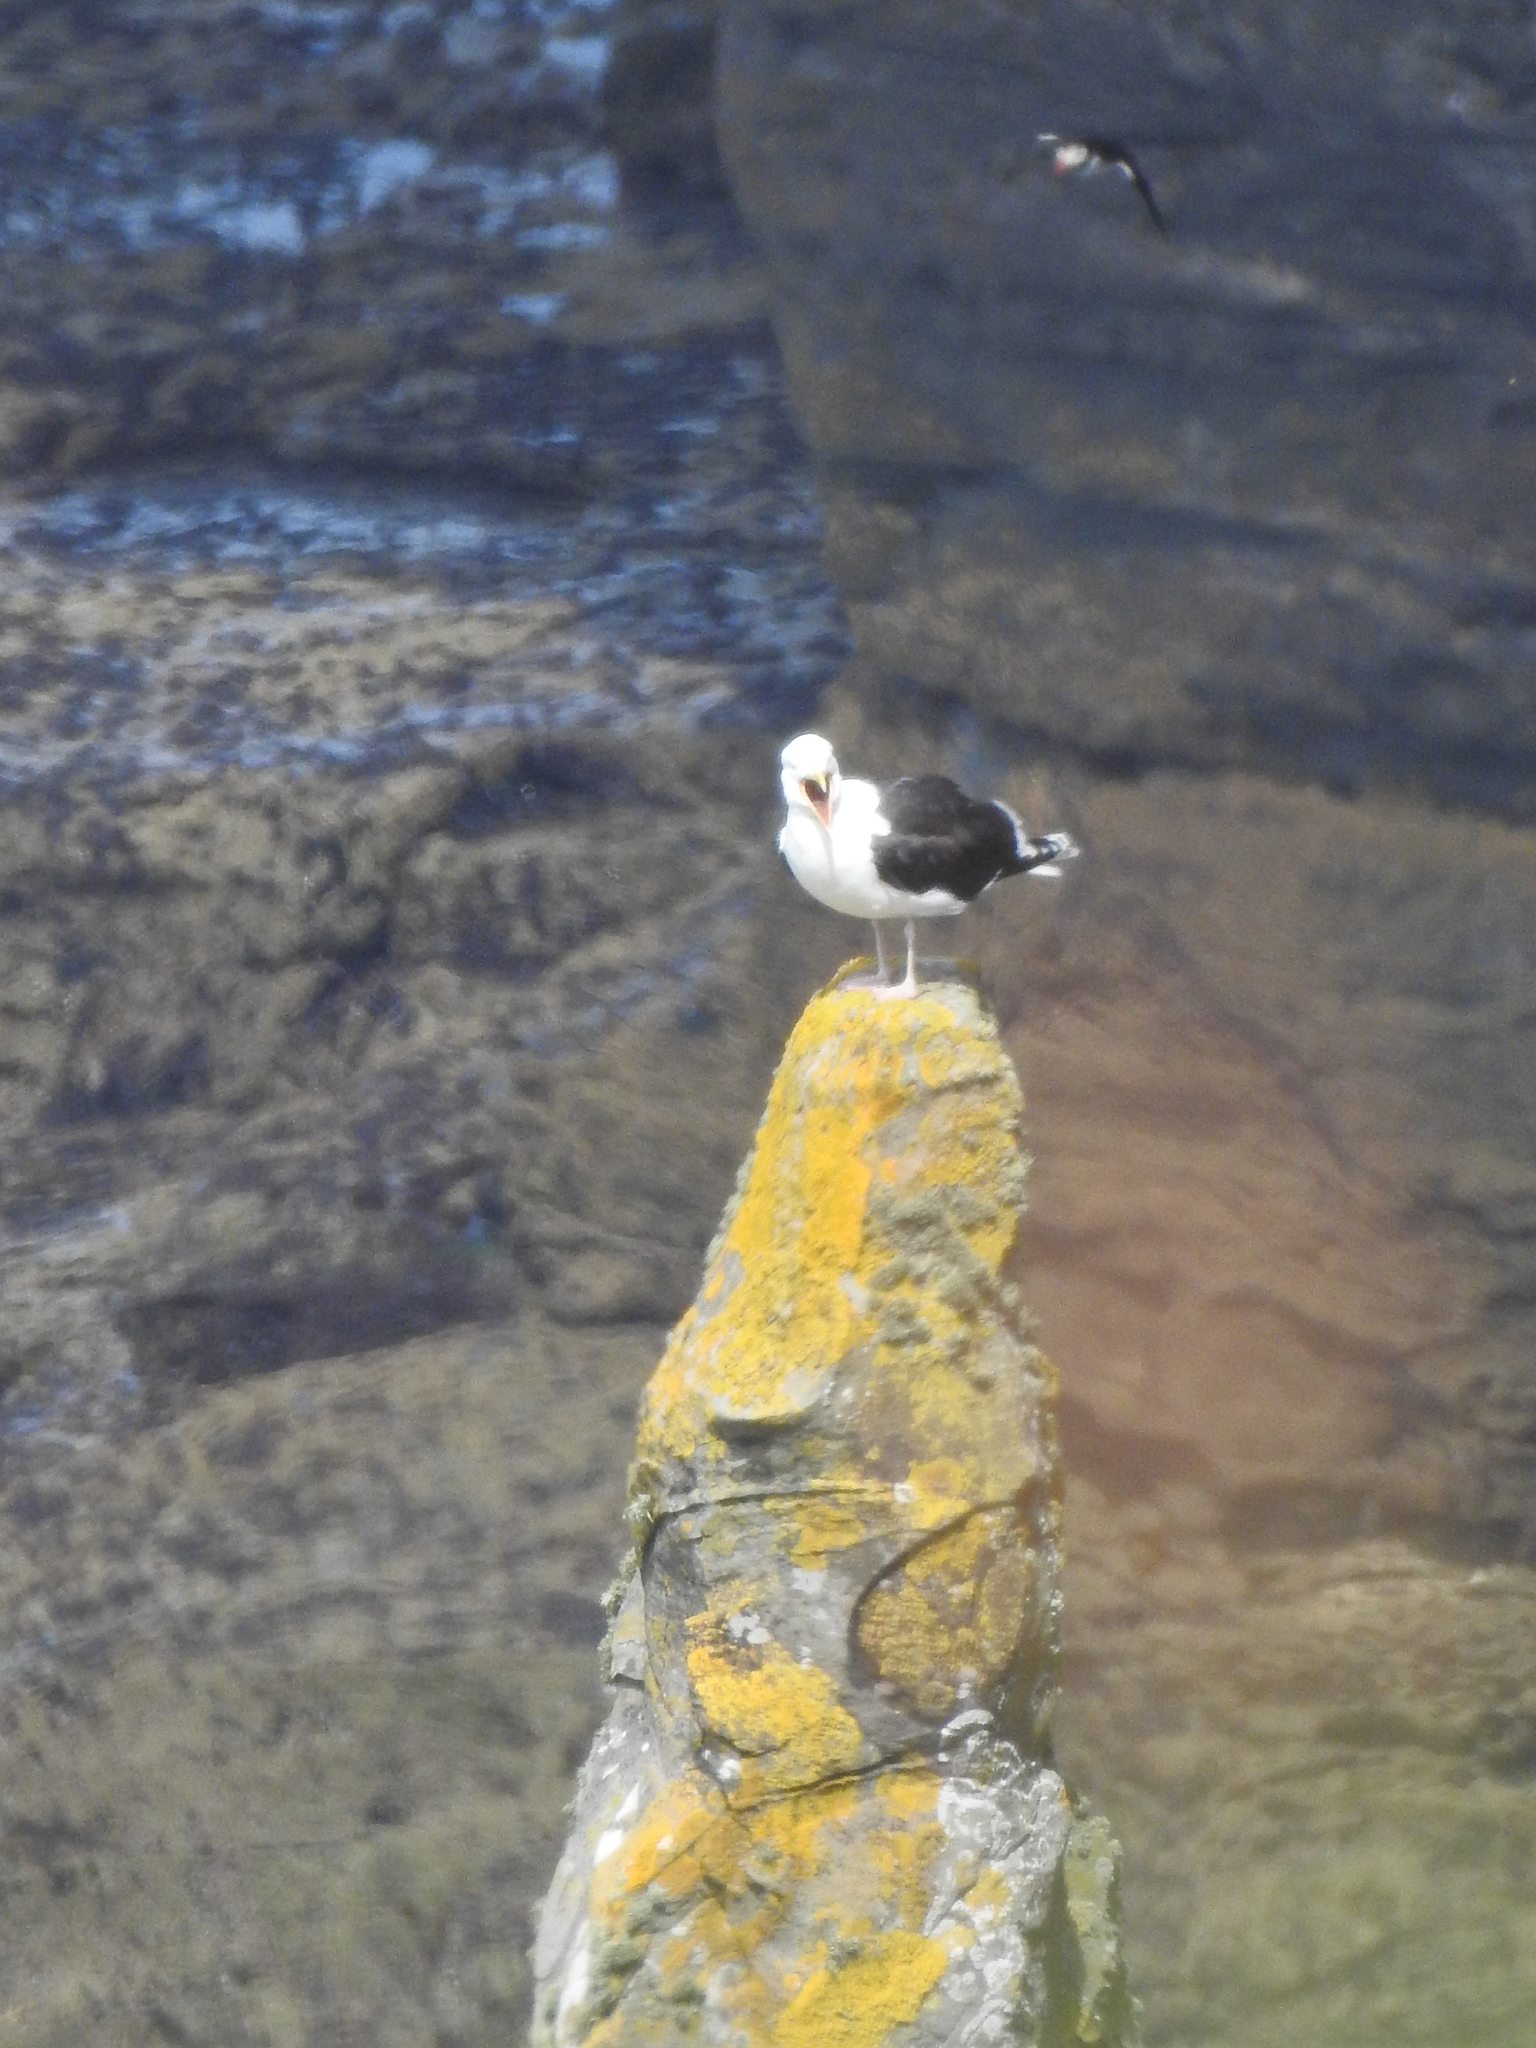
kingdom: Animalia
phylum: Chordata
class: Aves
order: Charadriiformes
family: Laridae
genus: Larus
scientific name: Larus marinus
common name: Great black-backed gull
